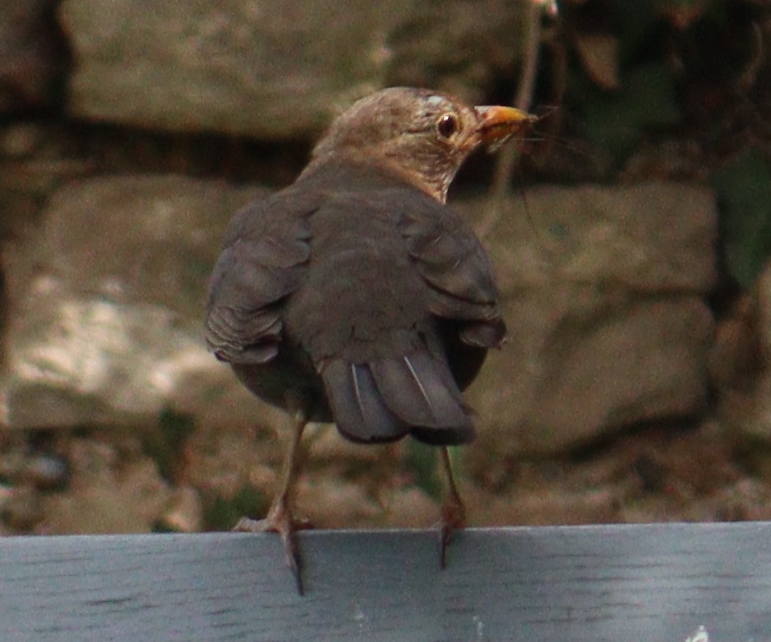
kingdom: Animalia
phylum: Chordata
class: Aves
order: Passeriformes
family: Turdidae
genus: Turdus
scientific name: Turdus merula
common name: Common blackbird
